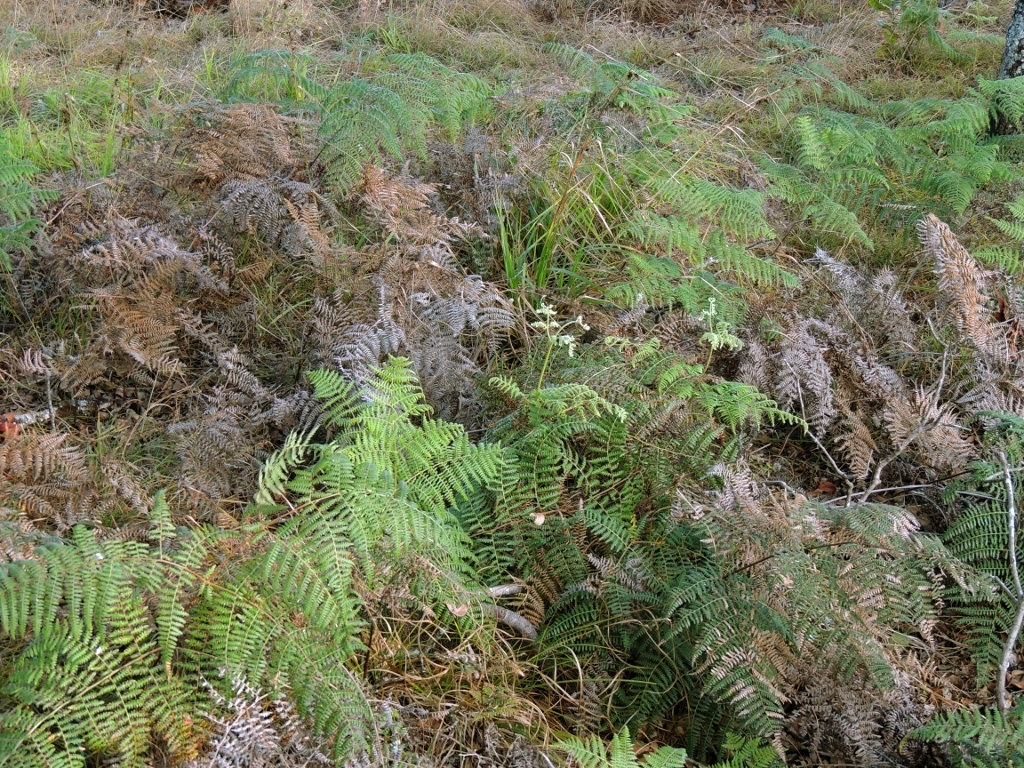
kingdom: Plantae
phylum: Tracheophyta
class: Polypodiopsida
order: Polypodiales
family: Dennstaedtiaceae
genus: Pteridium
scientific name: Pteridium aquilinum
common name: Bracken
